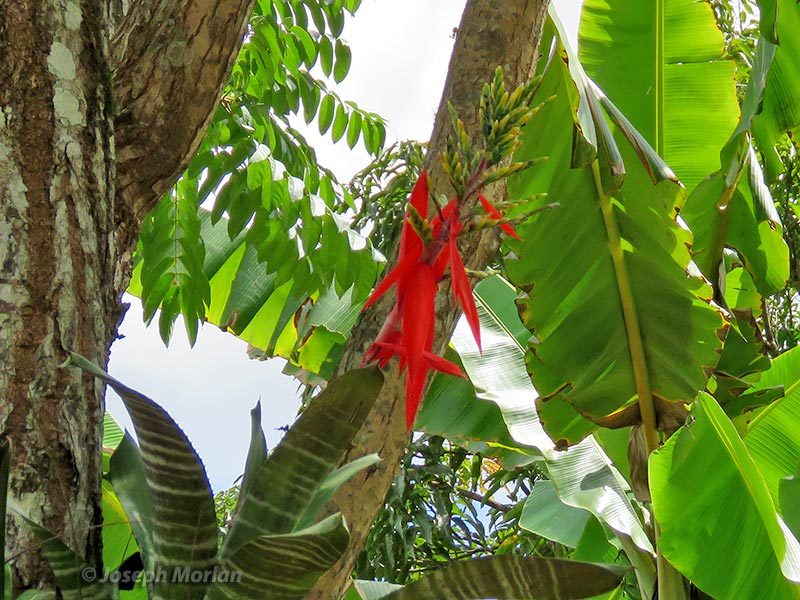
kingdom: Plantae
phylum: Tracheophyta
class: Liliopsida
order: Poales
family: Bromeliaceae
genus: Aechmea
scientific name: Aechmea chantinii
